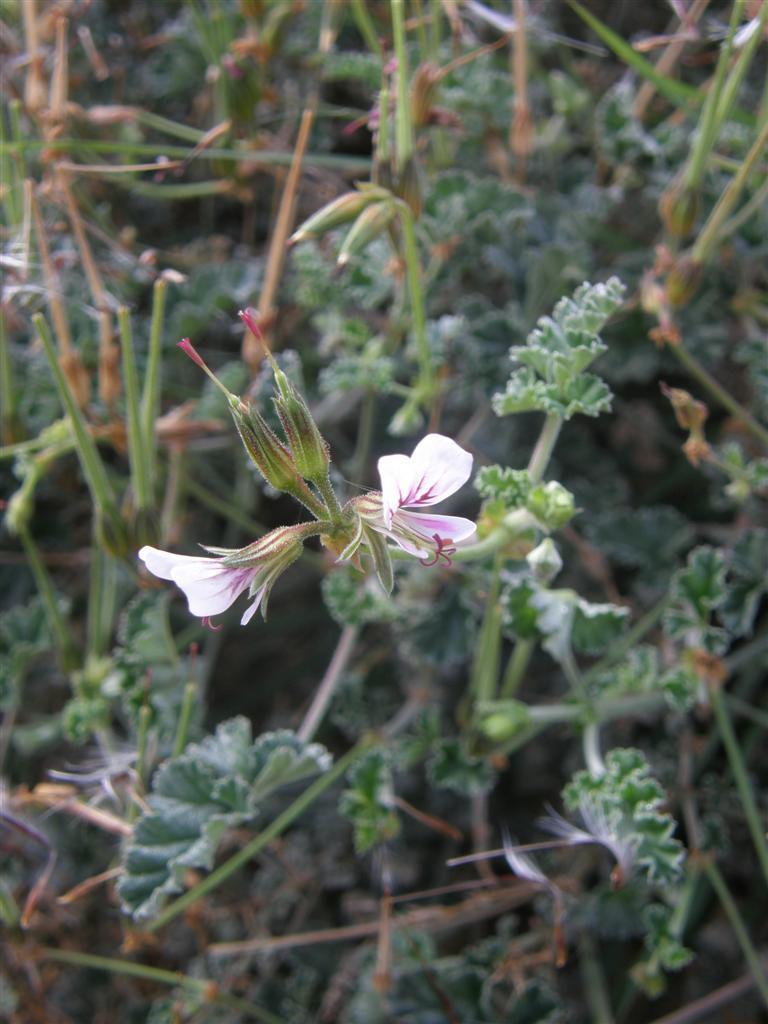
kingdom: Plantae
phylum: Tracheophyta
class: Magnoliopsida
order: Geraniales
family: Geraniaceae
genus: Pelargonium
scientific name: Pelargonium candicans
